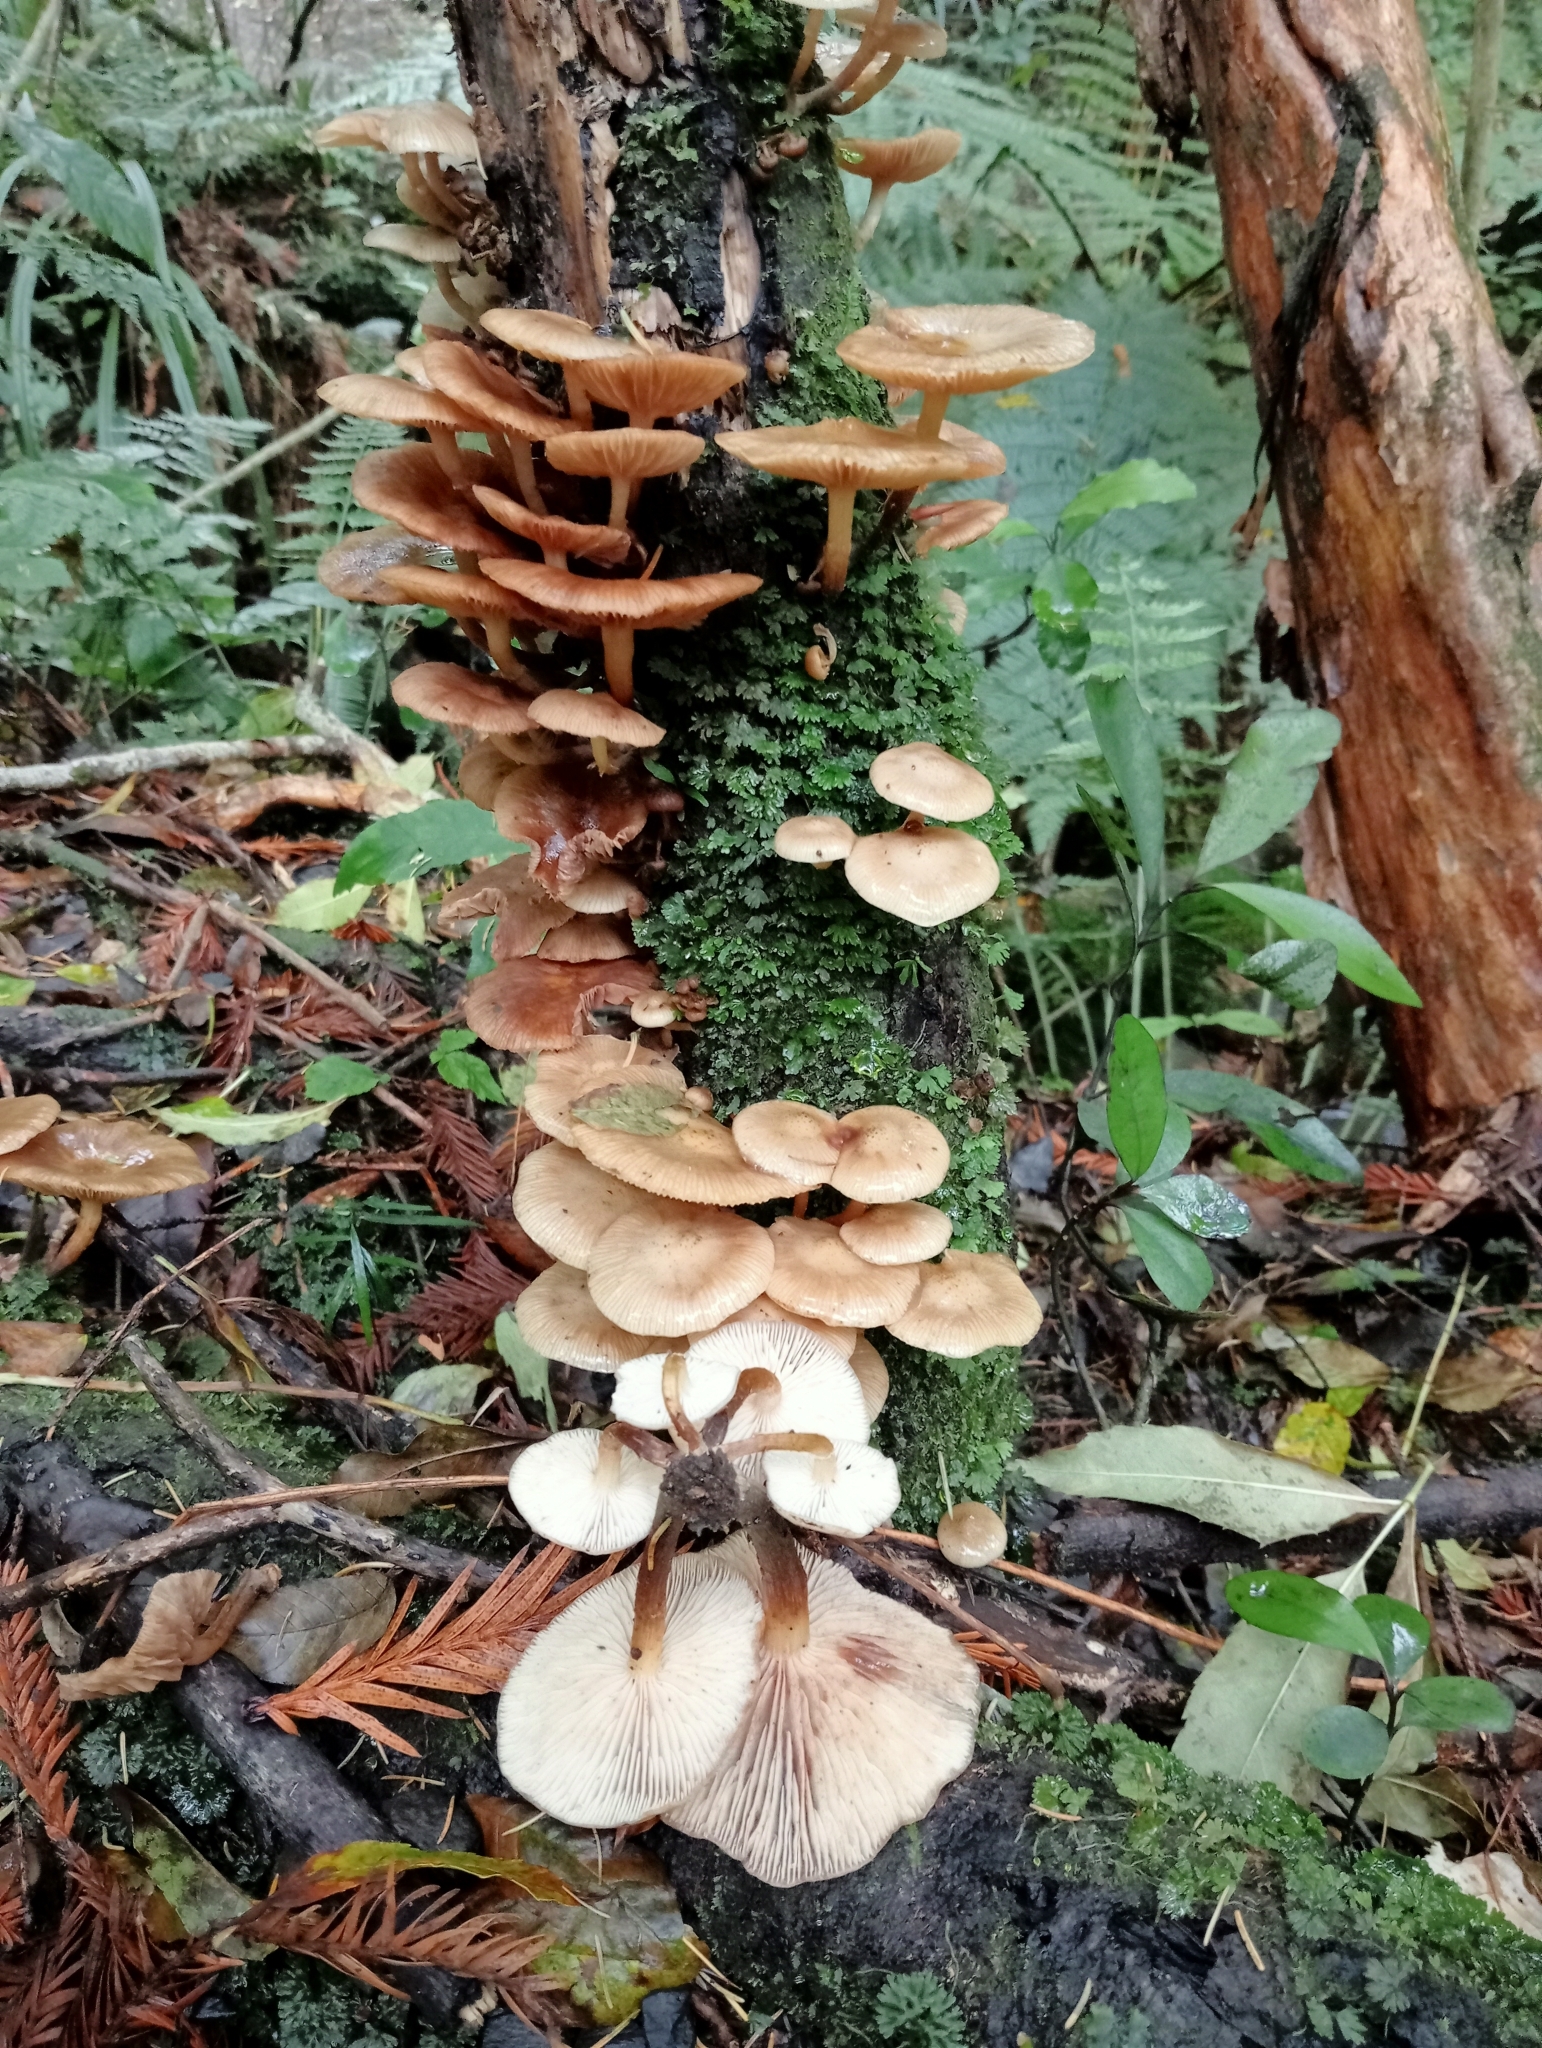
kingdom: Fungi
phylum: Basidiomycota
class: Agaricomycetes
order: Agaricales
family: Physalacriaceae
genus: Armillaria
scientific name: Armillaria novae-zelandiae
